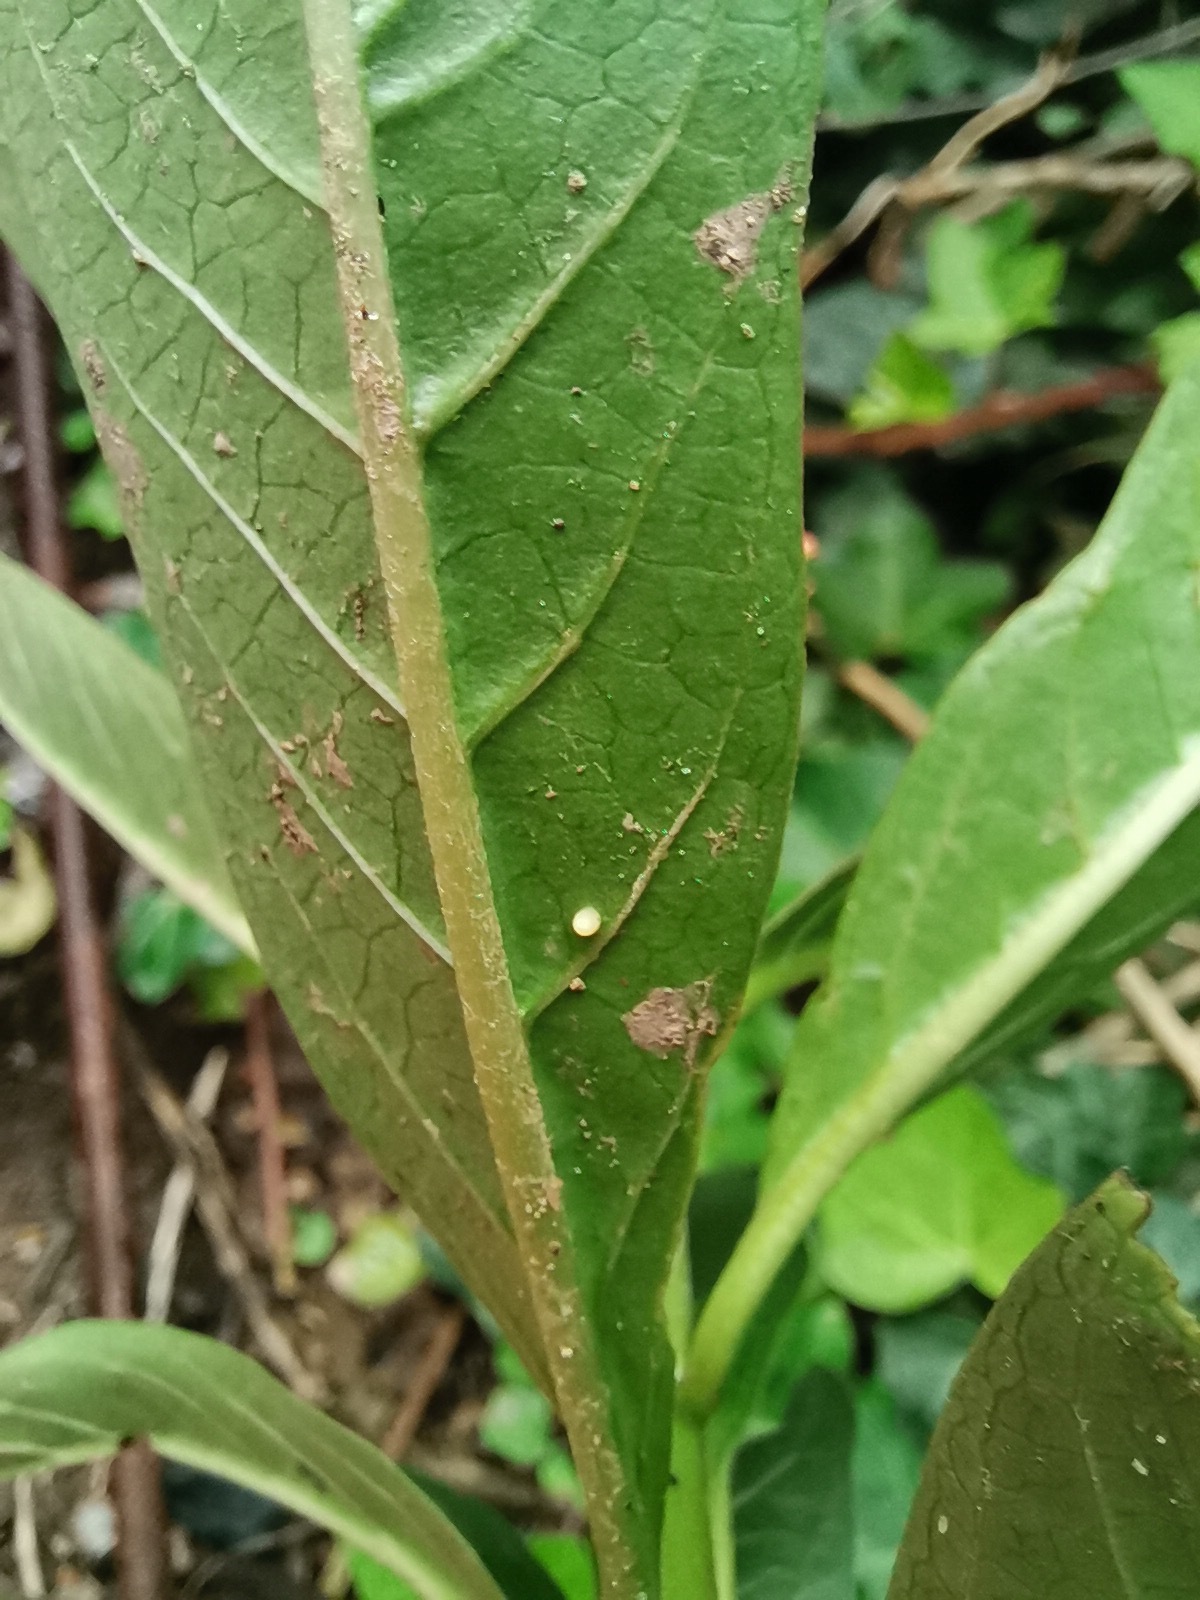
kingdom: Animalia
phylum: Arthropoda
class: Insecta
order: Lepidoptera
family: Nymphalidae
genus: Danaus
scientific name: Danaus plexippus
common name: Monarch
